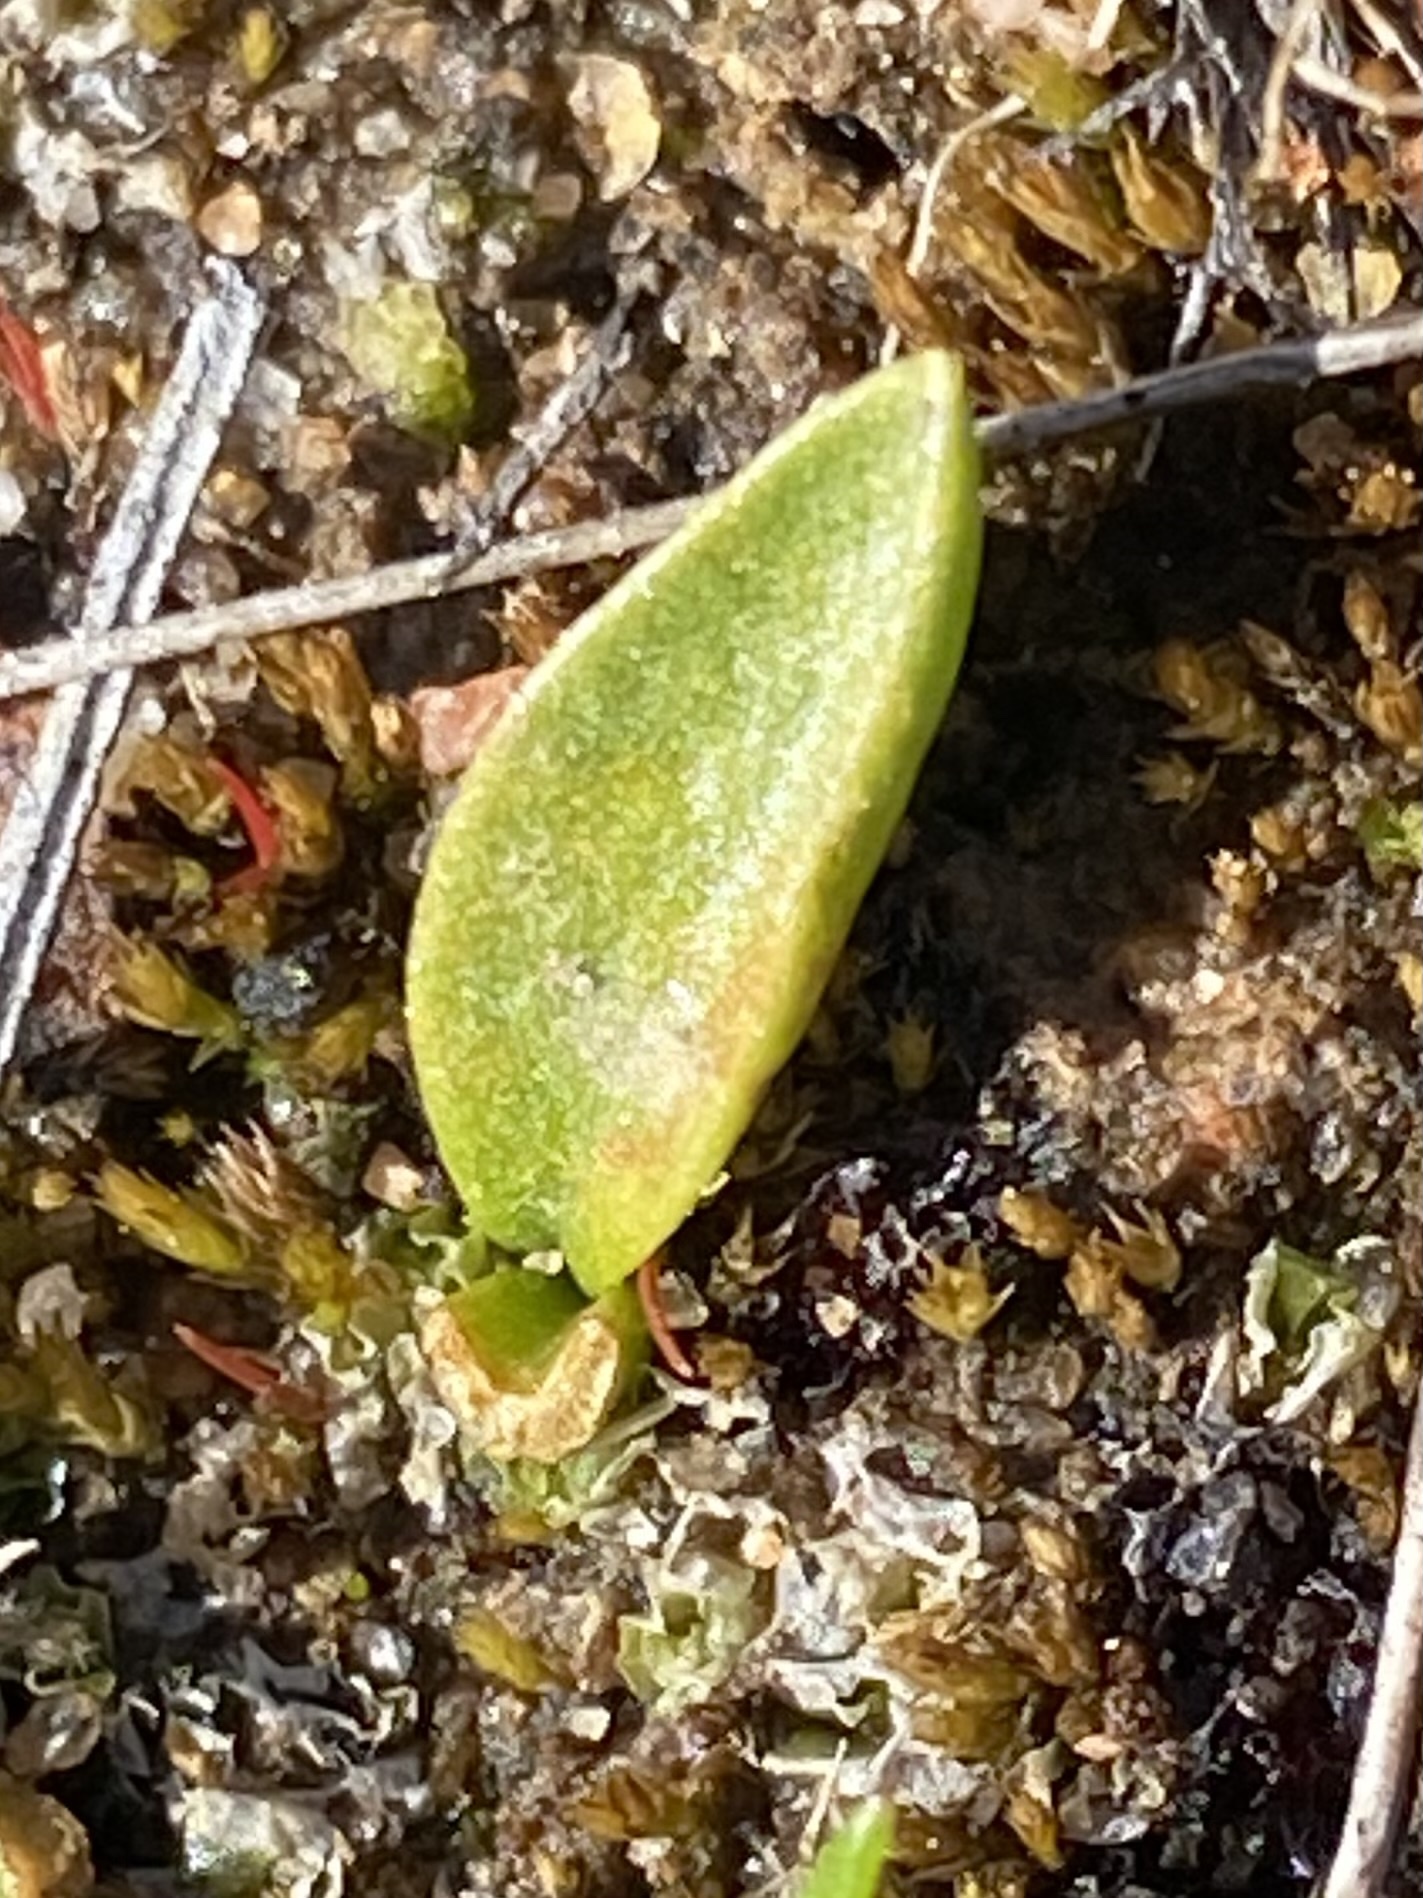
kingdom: Plantae
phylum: Tracheophyta
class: Polypodiopsida
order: Ophioglossales
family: Ophioglossaceae
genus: Ophioglossum
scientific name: Ophioglossum californicum
